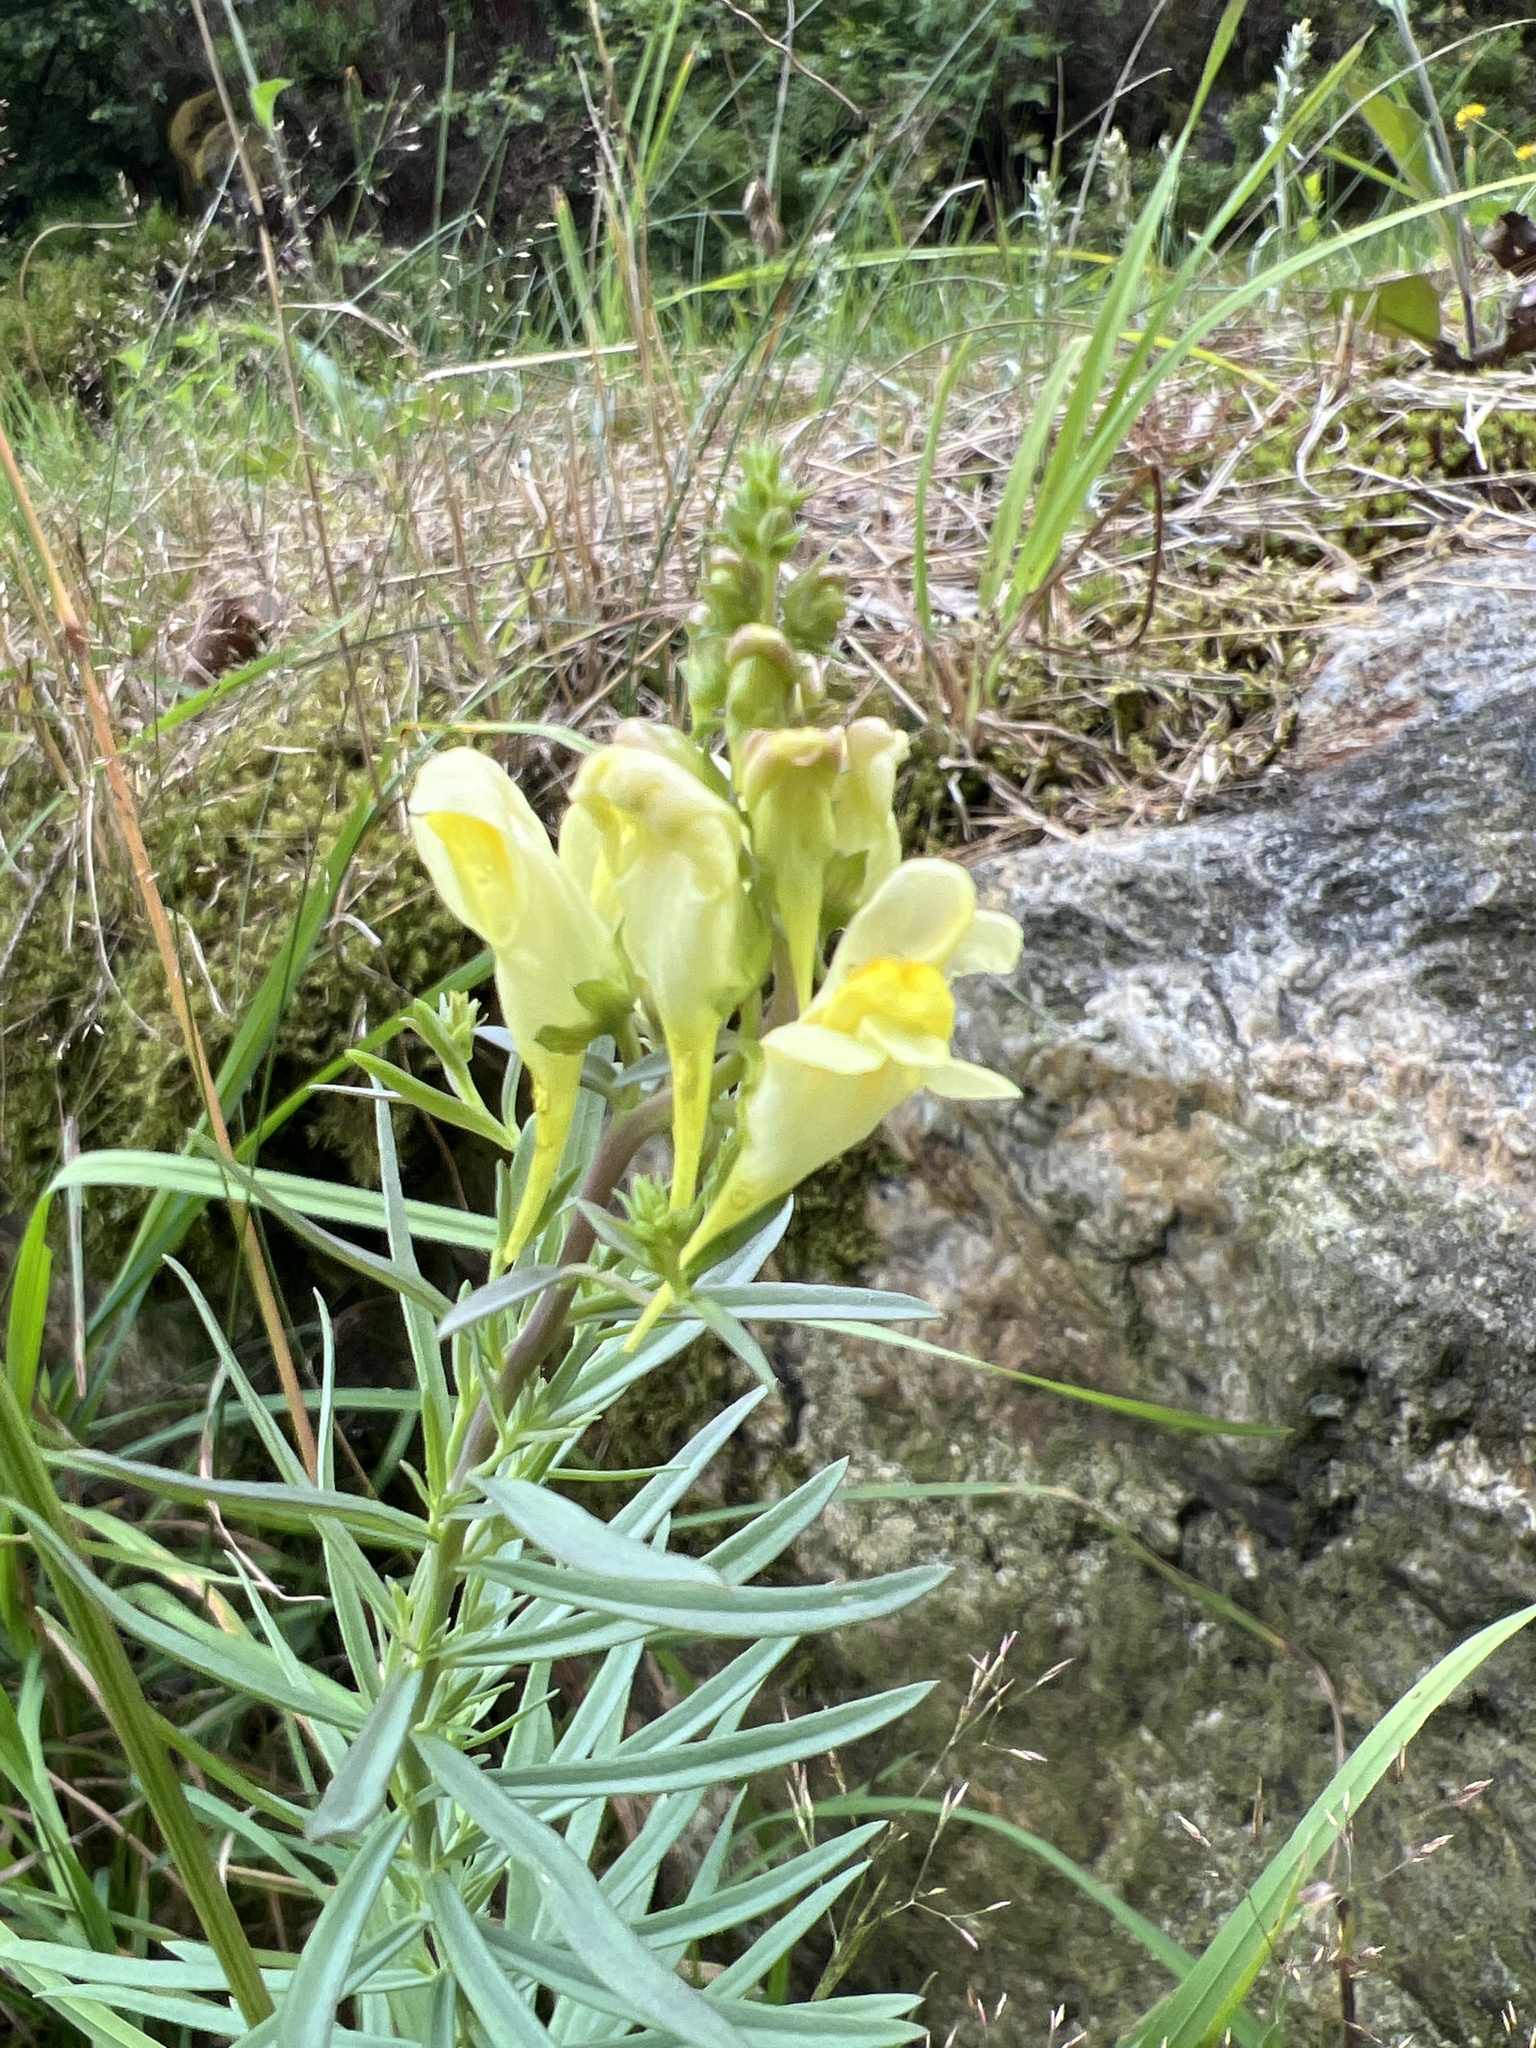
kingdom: Plantae
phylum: Tracheophyta
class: Magnoliopsida
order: Lamiales
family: Plantaginaceae
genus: Linaria
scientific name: Linaria vulgaris
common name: Butter and eggs
